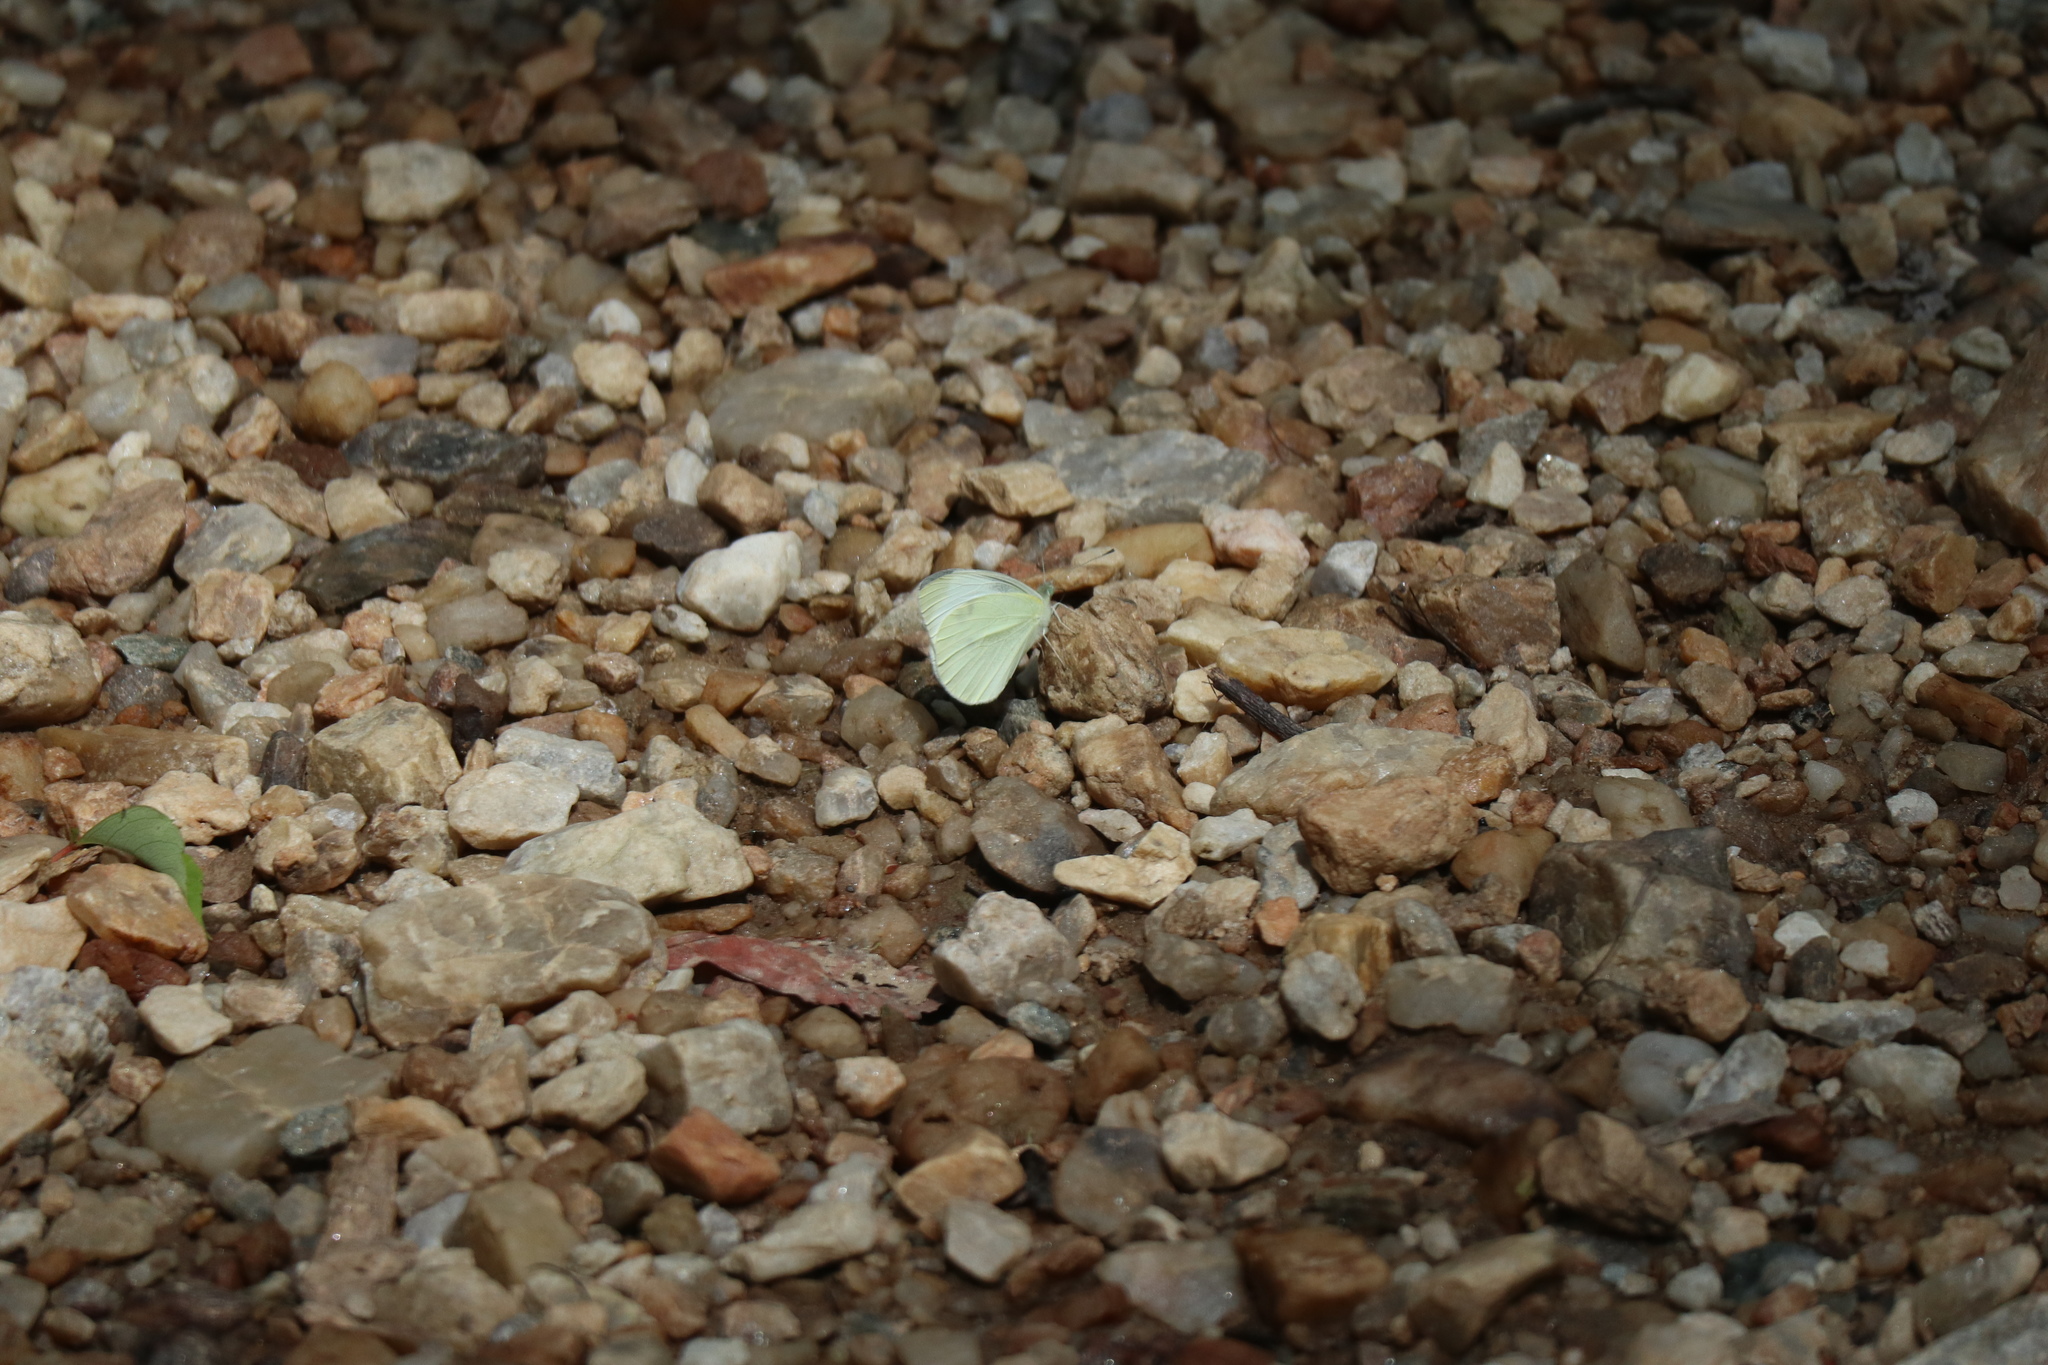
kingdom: Animalia
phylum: Arthropoda
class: Insecta
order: Lepidoptera
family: Pieridae
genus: Pieris
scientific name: Pieris rapae
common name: Small white
